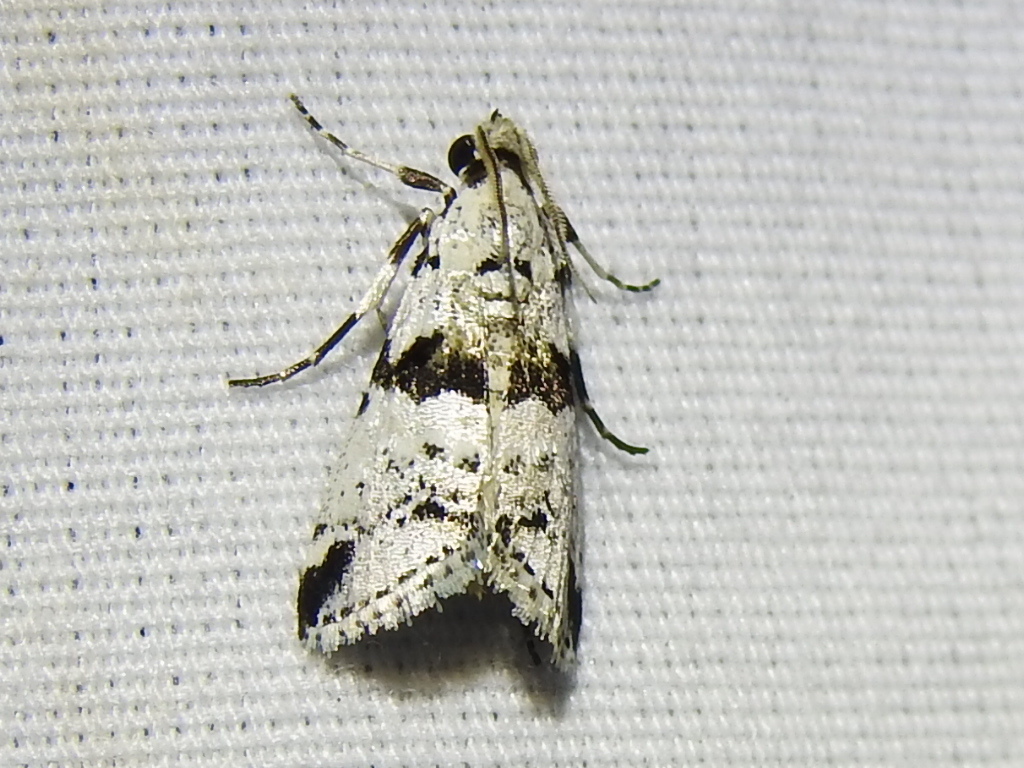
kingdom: Animalia
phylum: Arthropoda
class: Insecta
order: Lepidoptera
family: Pyralidae
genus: Tallula
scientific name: Tallula atrifascialis
